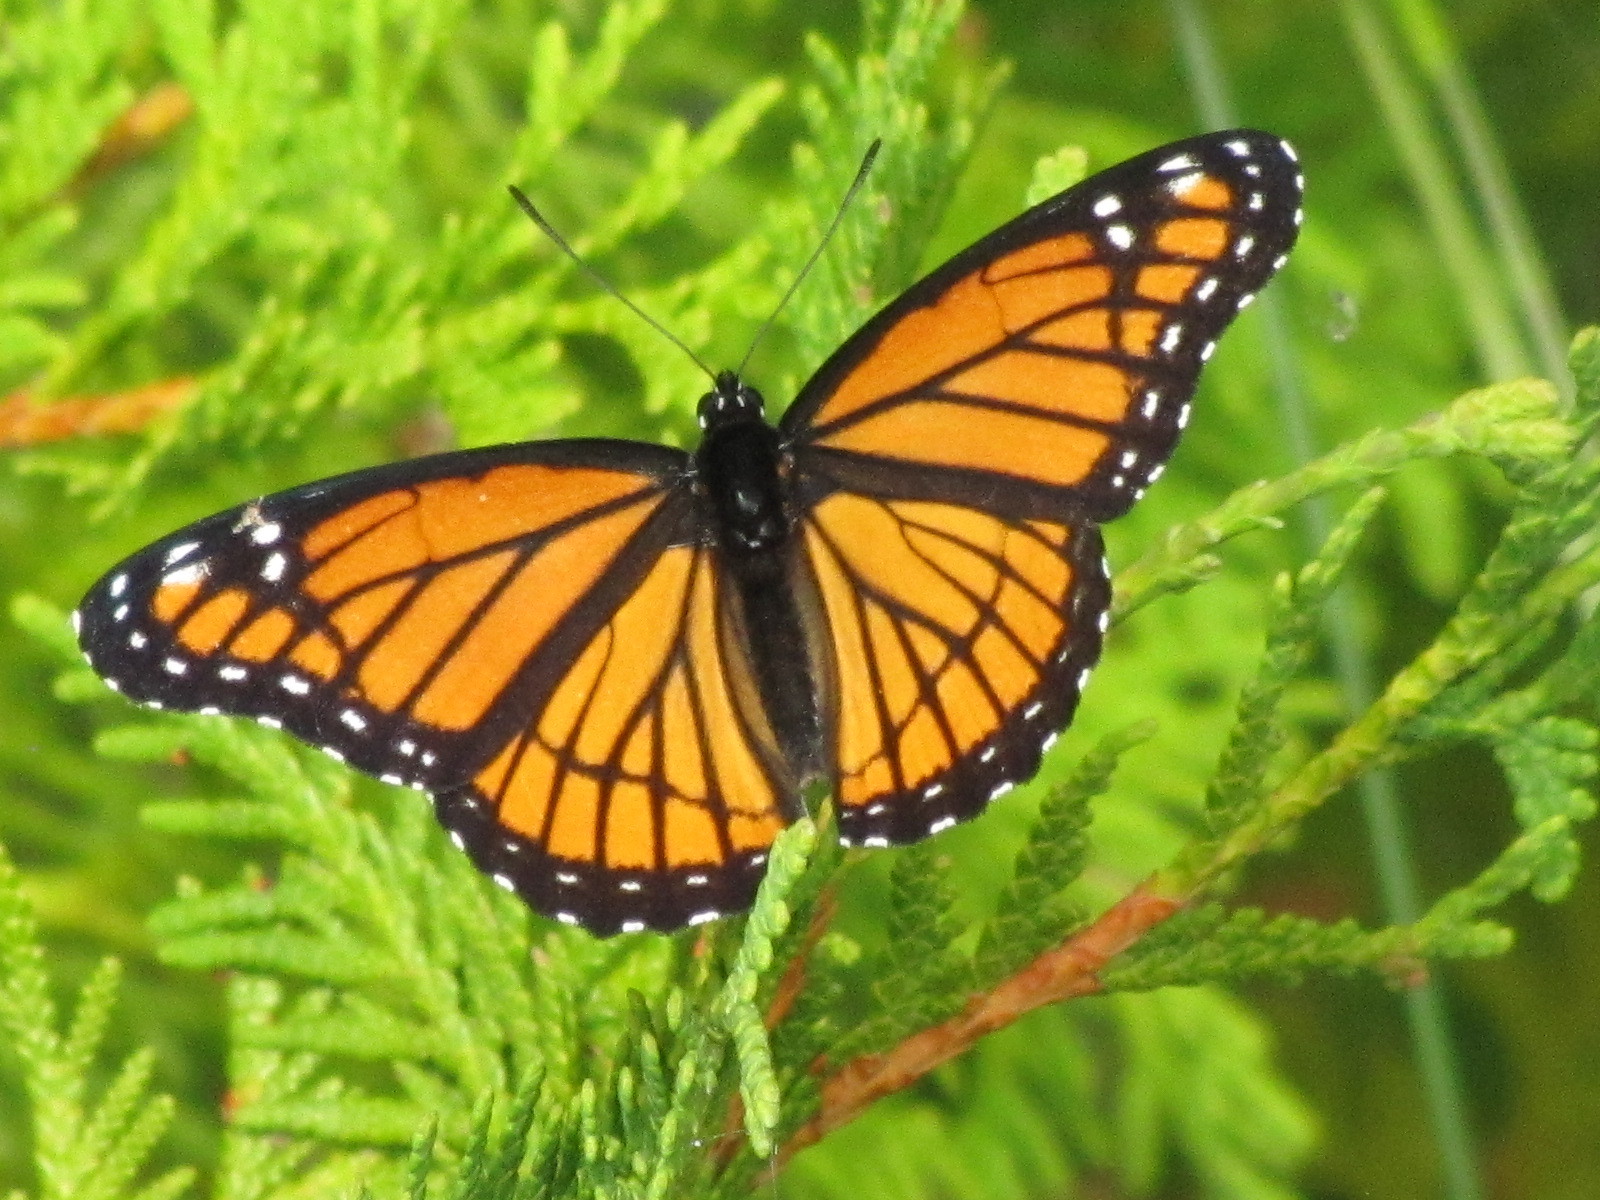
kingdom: Animalia
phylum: Arthropoda
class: Insecta
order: Lepidoptera
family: Nymphalidae
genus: Limenitis
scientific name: Limenitis archippus
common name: Viceroy
